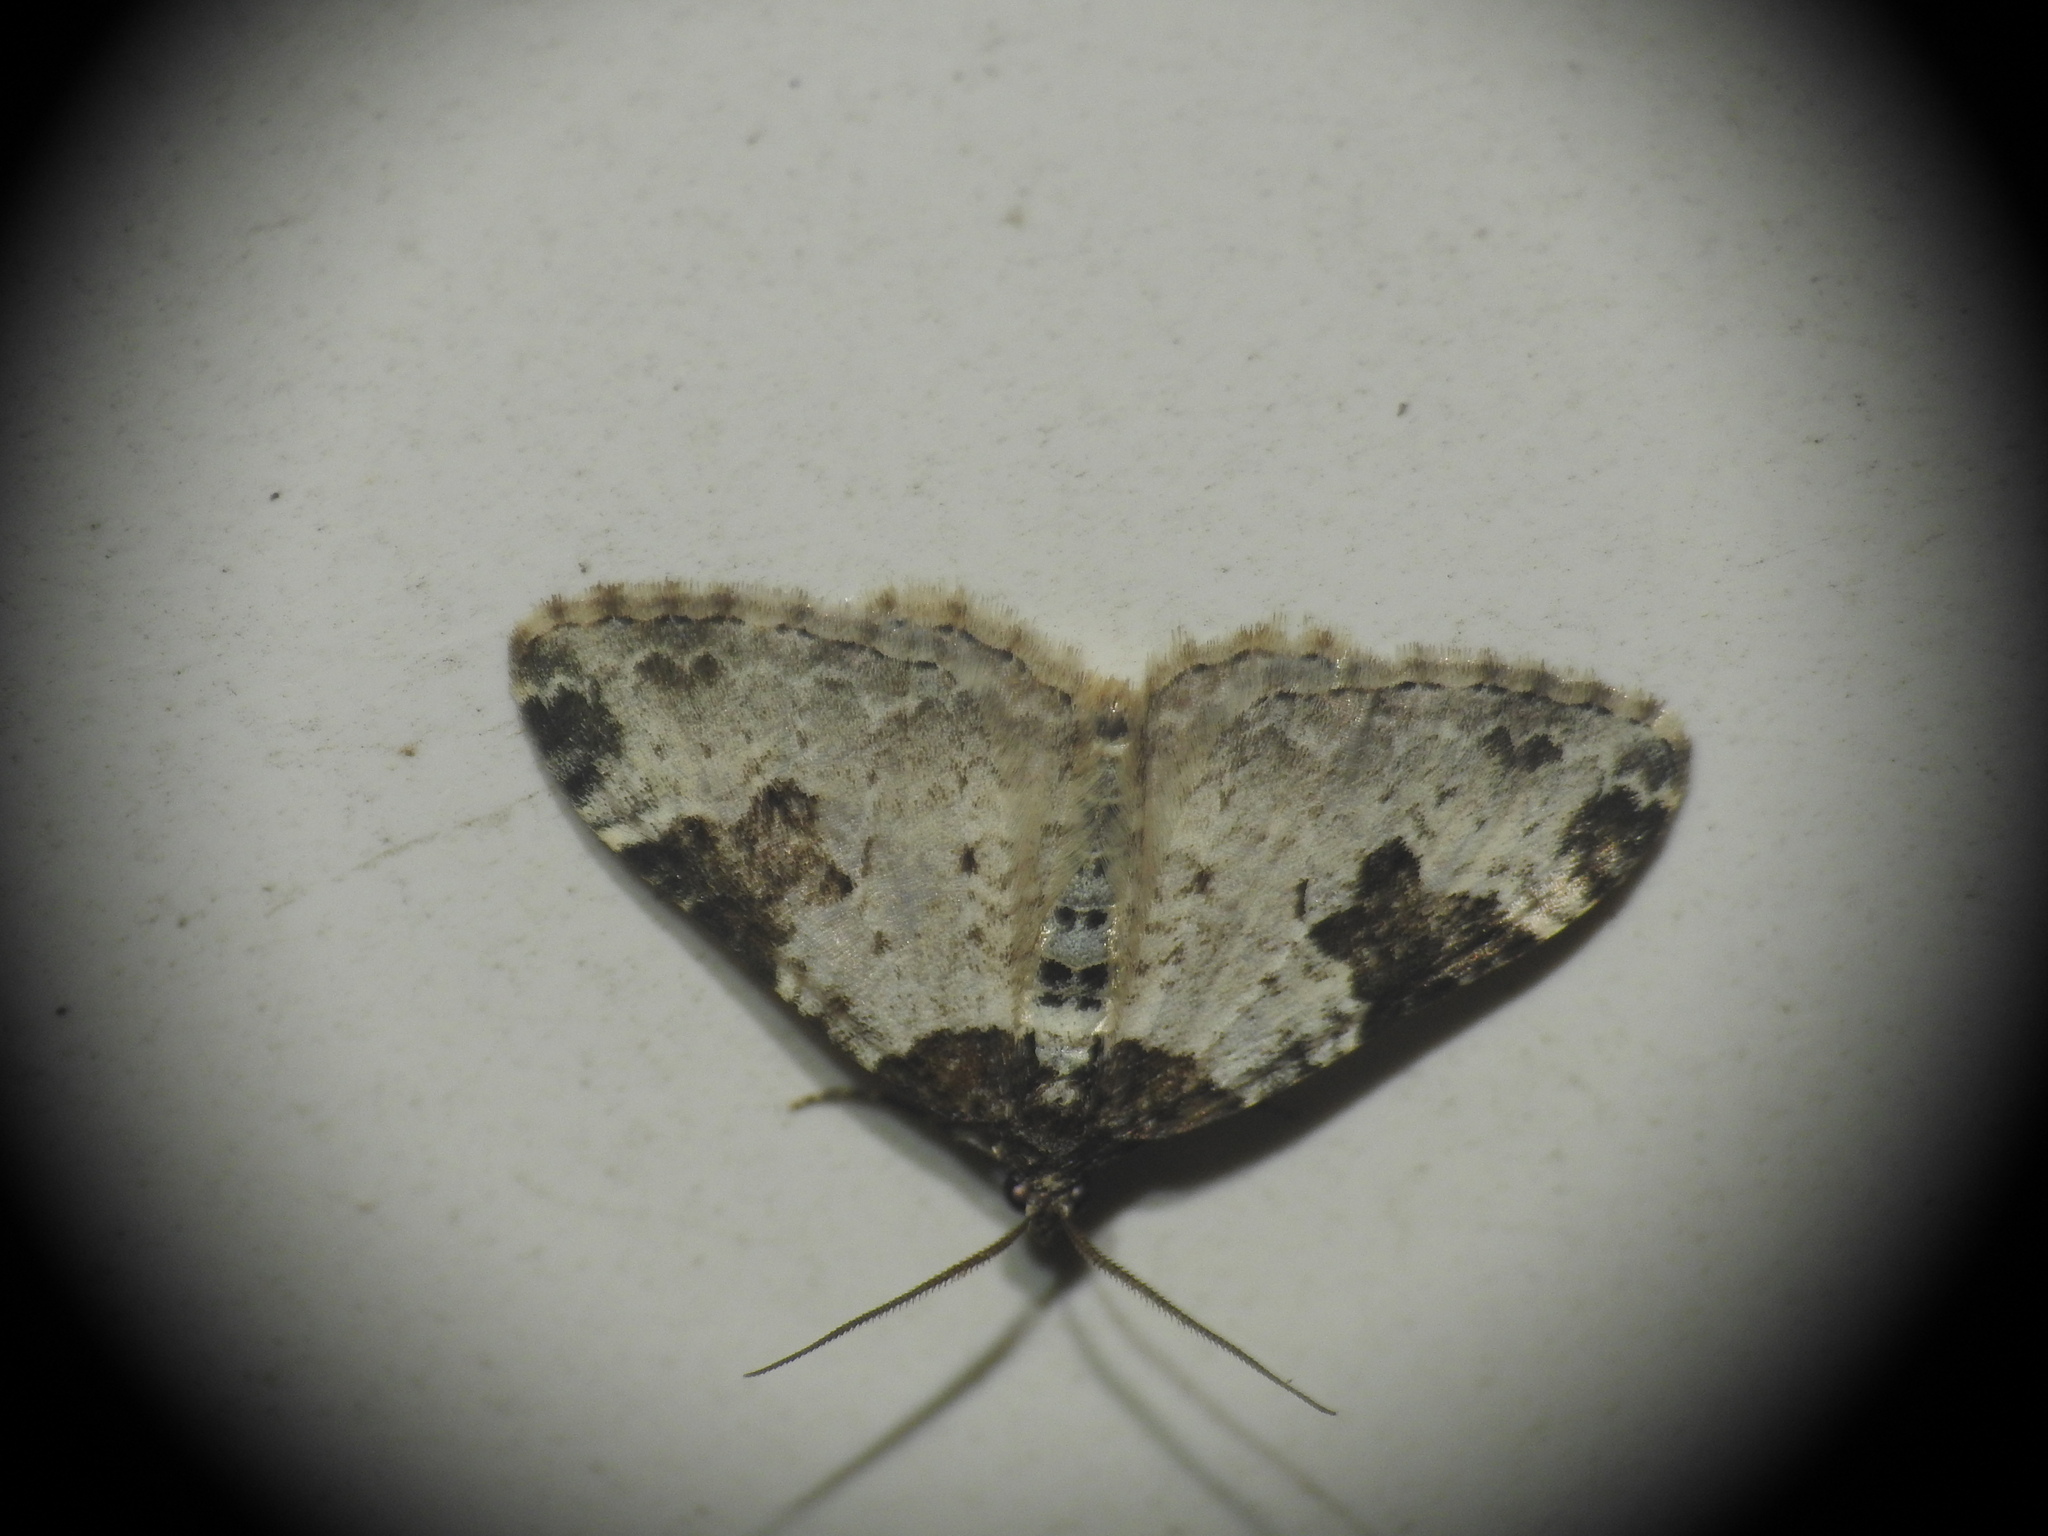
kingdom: Animalia
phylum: Arthropoda
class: Insecta
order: Lepidoptera
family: Geometridae
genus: Xanthorhoe
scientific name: Xanthorhoe fluctuata
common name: Garden carpet
